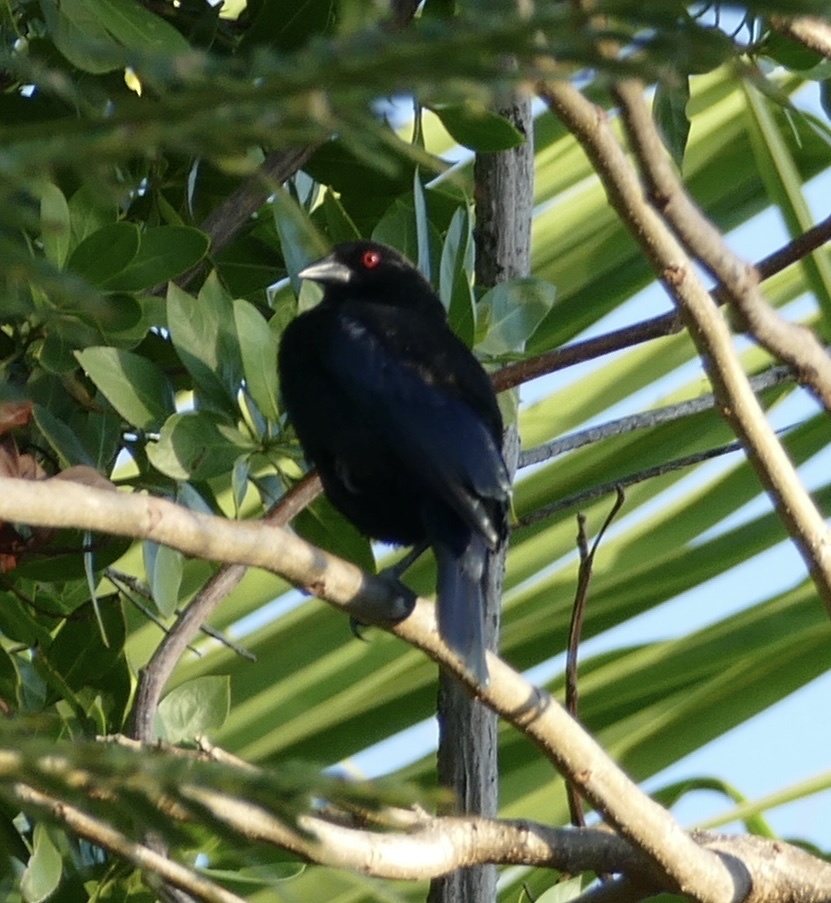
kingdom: Animalia
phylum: Chordata
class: Aves
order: Passeriformes
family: Icteridae
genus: Molothrus
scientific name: Molothrus aeneus
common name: Bronzed cowbird
